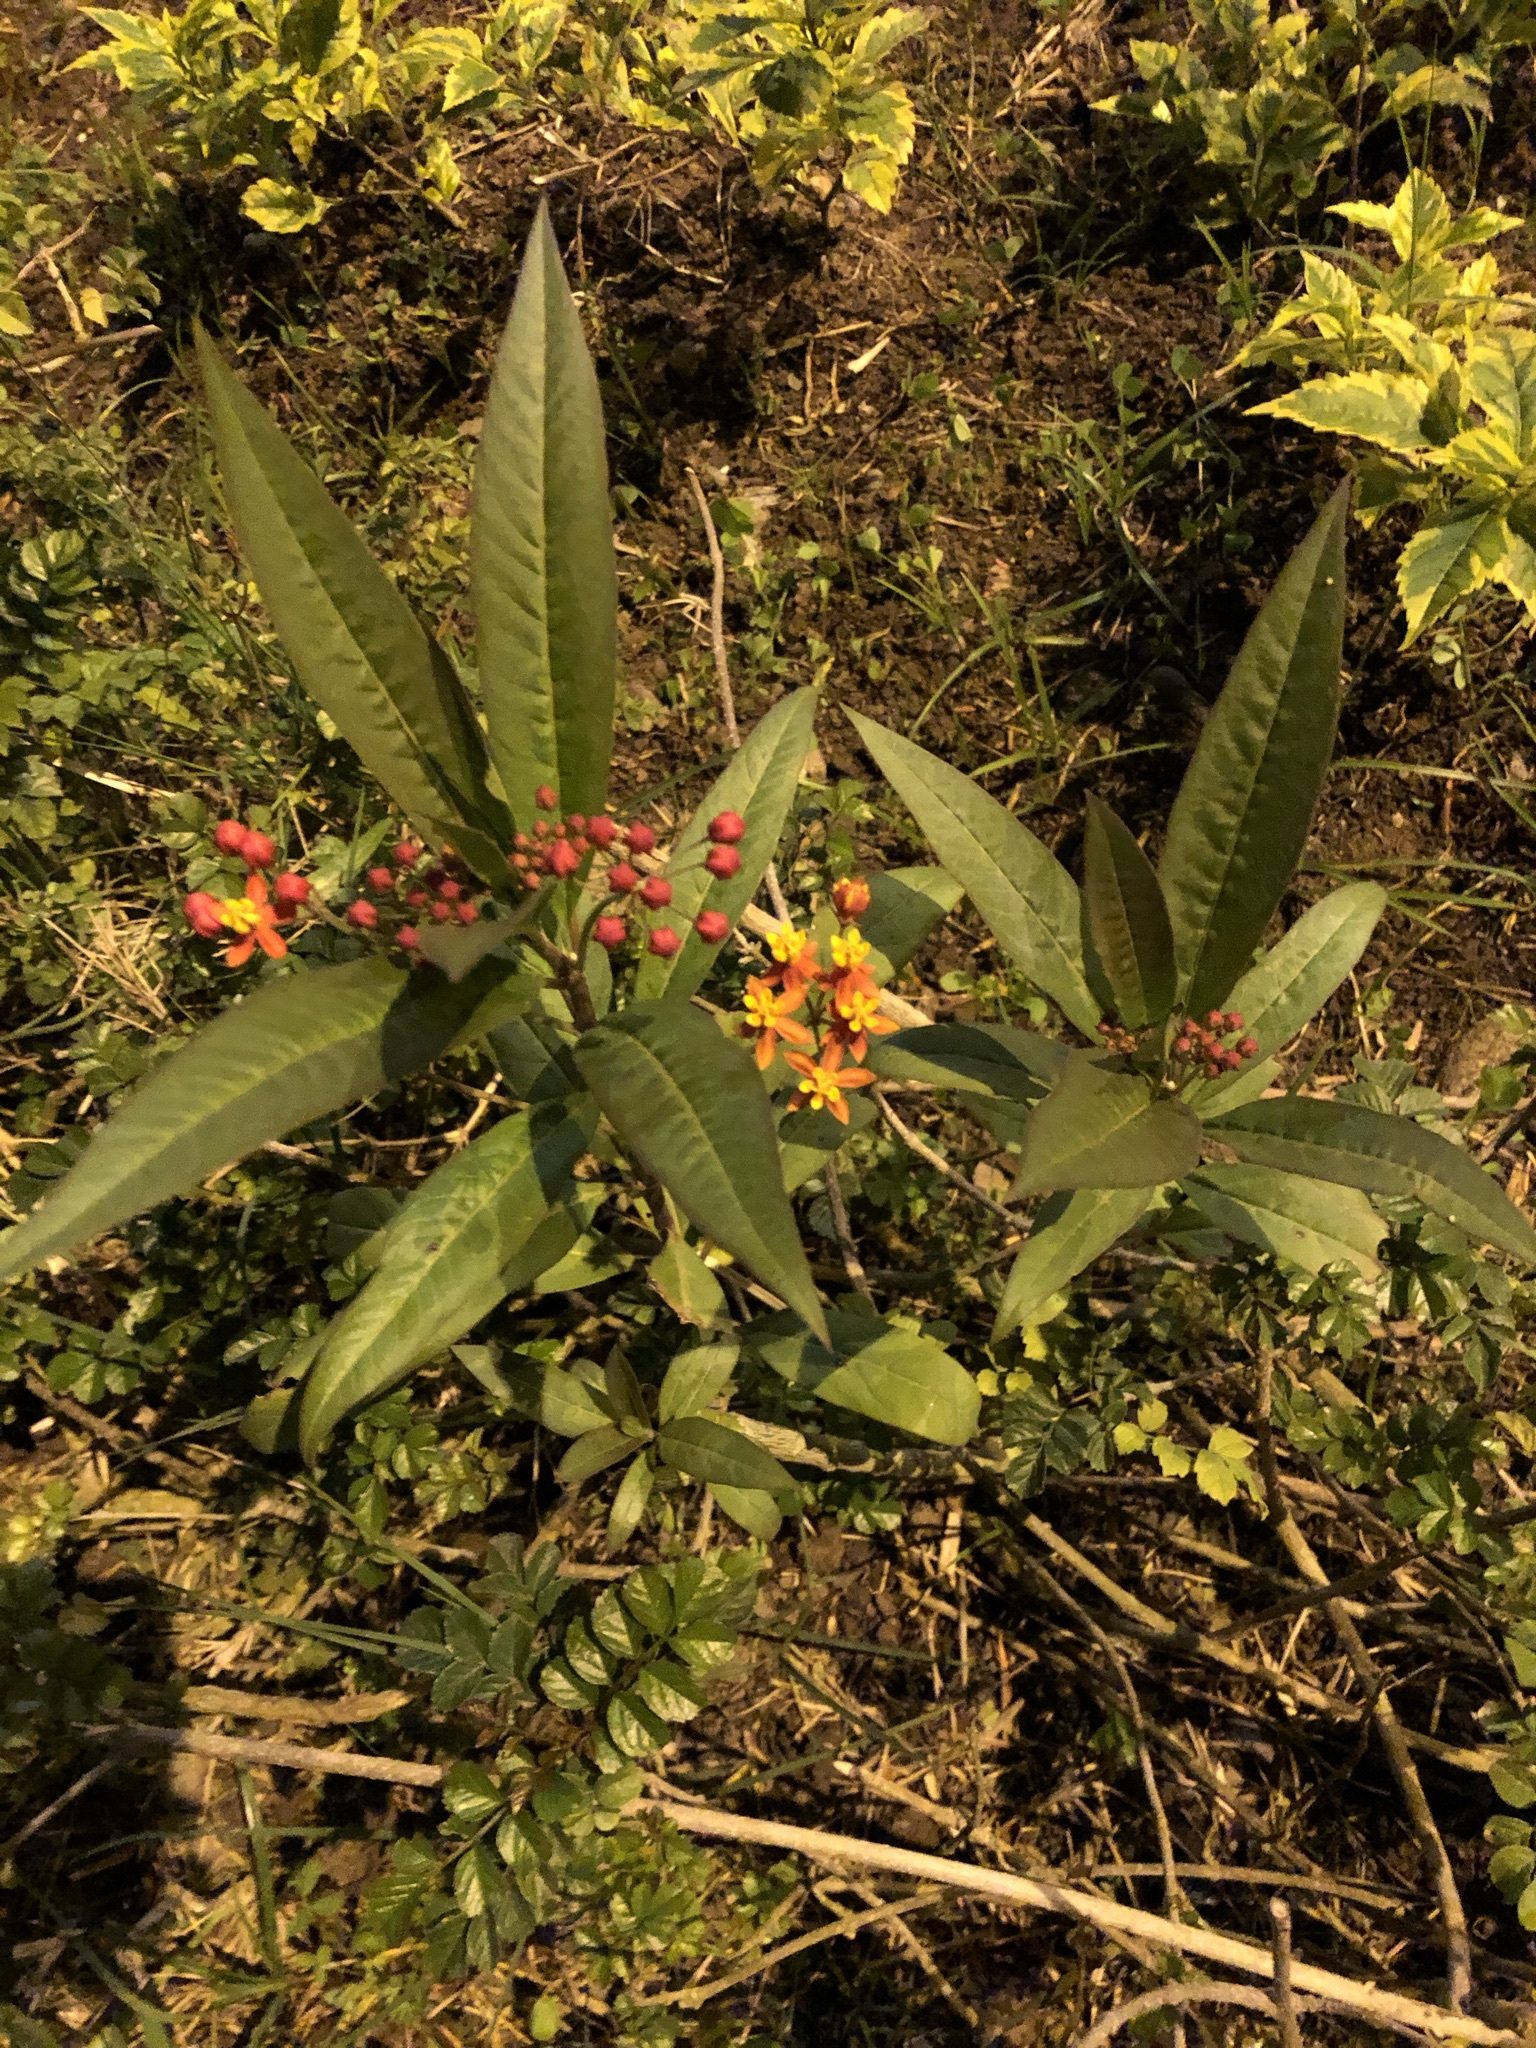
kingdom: Plantae
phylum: Tracheophyta
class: Magnoliopsida
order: Gentianales
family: Apocynaceae
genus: Asclepias
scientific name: Asclepias curassavica
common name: Bloodflower
